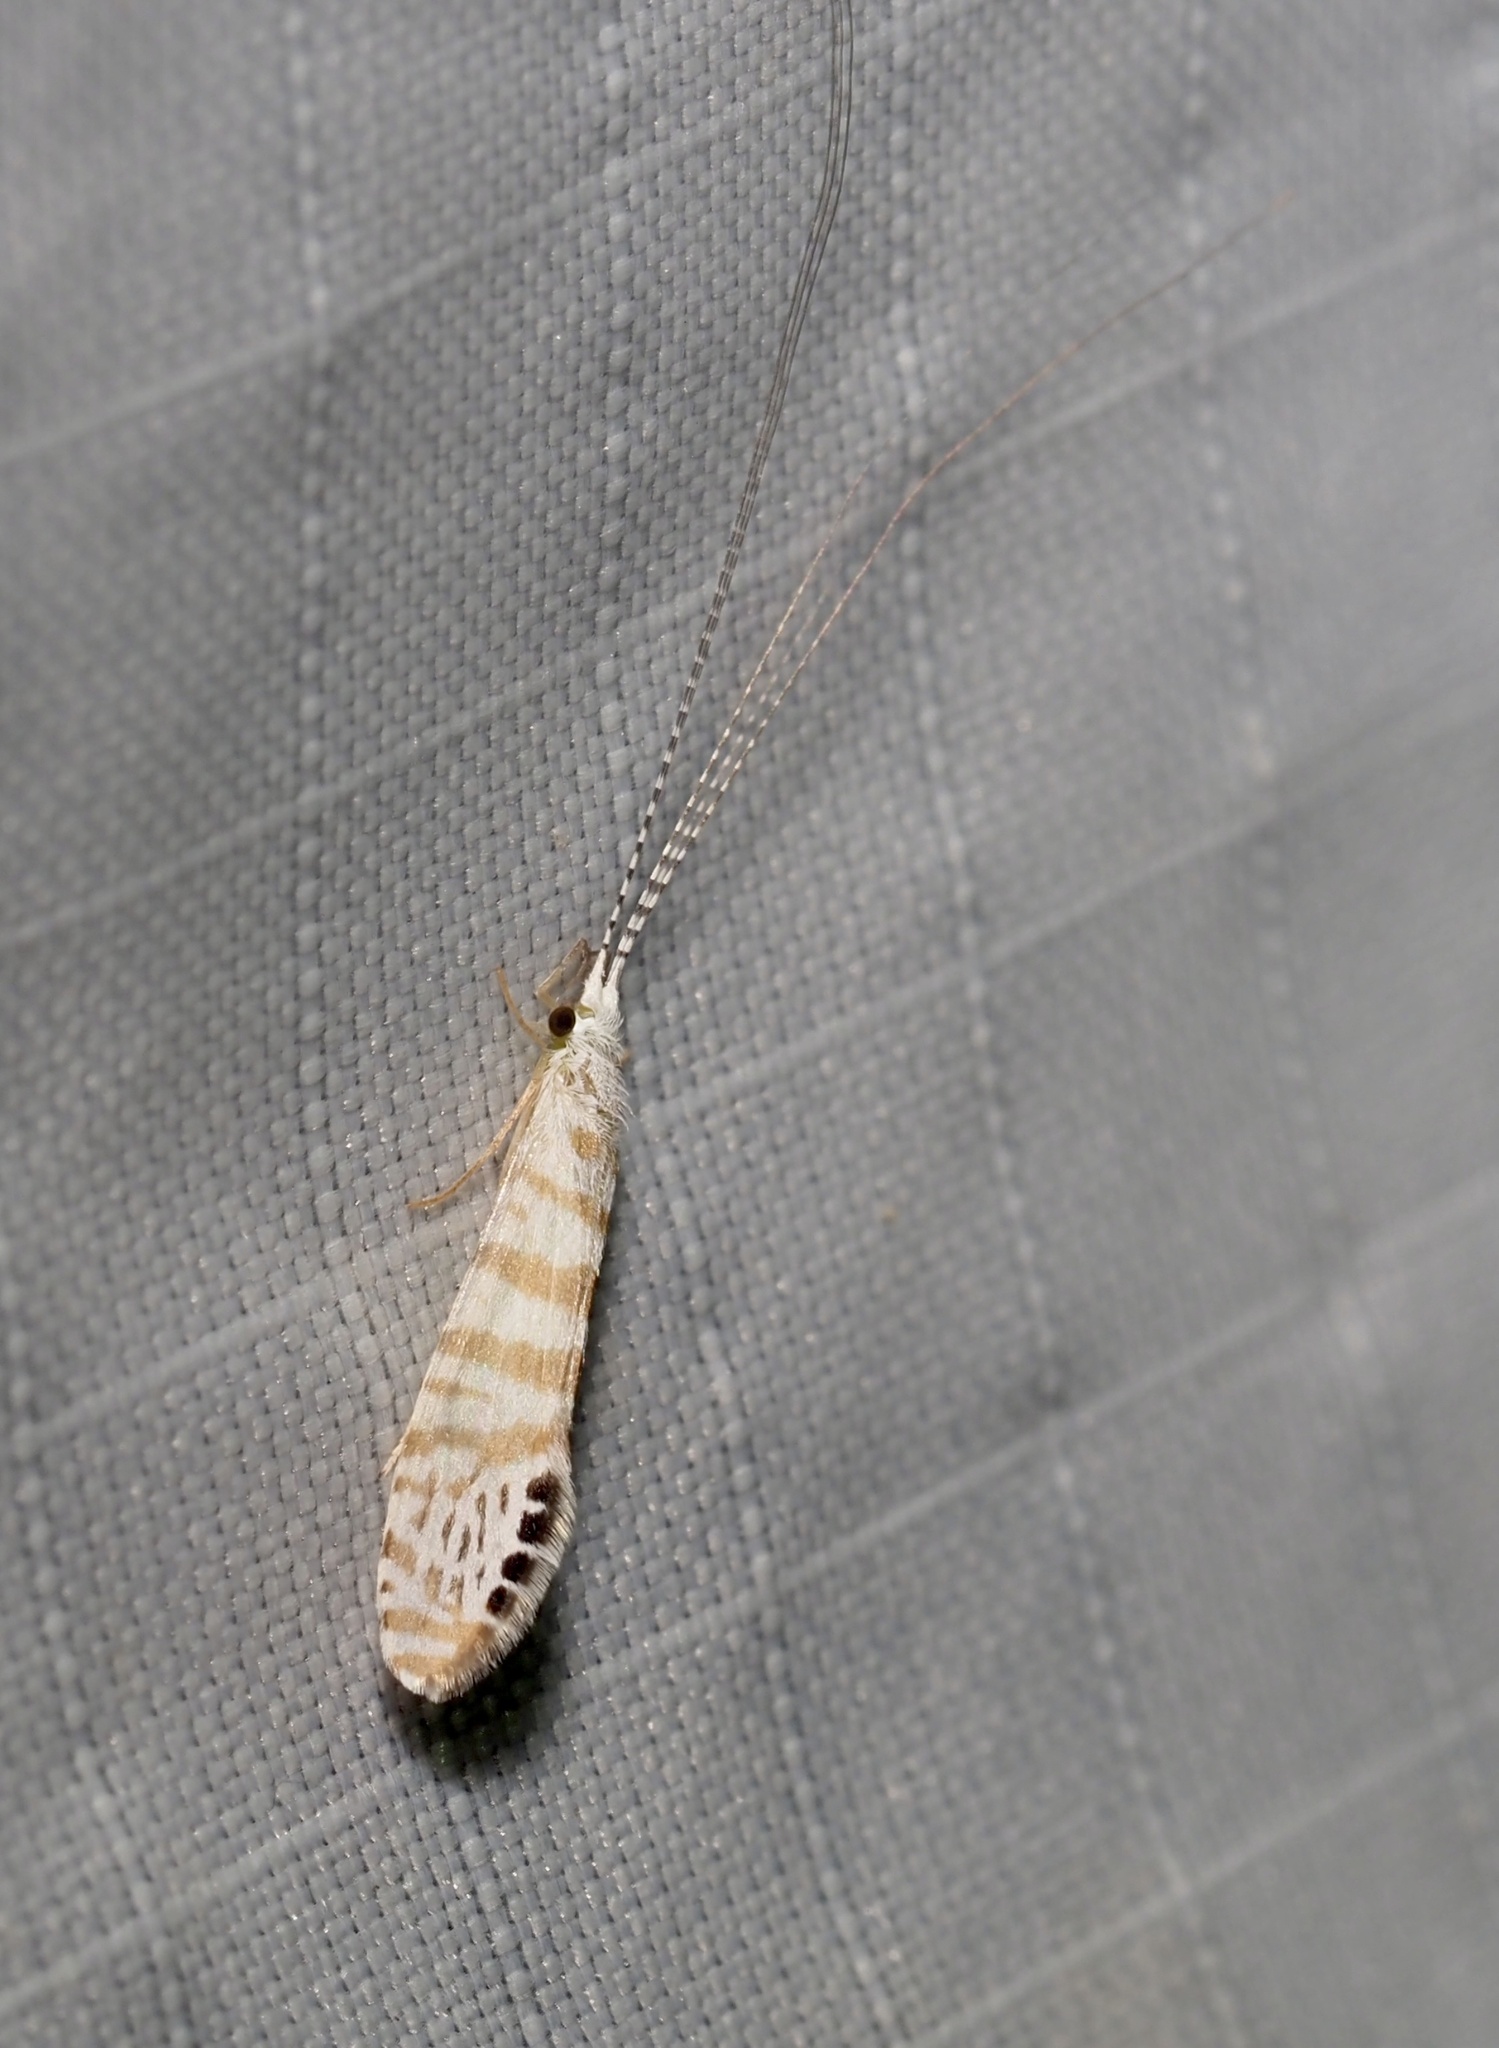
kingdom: Animalia
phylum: Arthropoda
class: Insecta
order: Trichoptera
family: Leptoceridae
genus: Nectopsyche
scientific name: Nectopsyche exquisita
